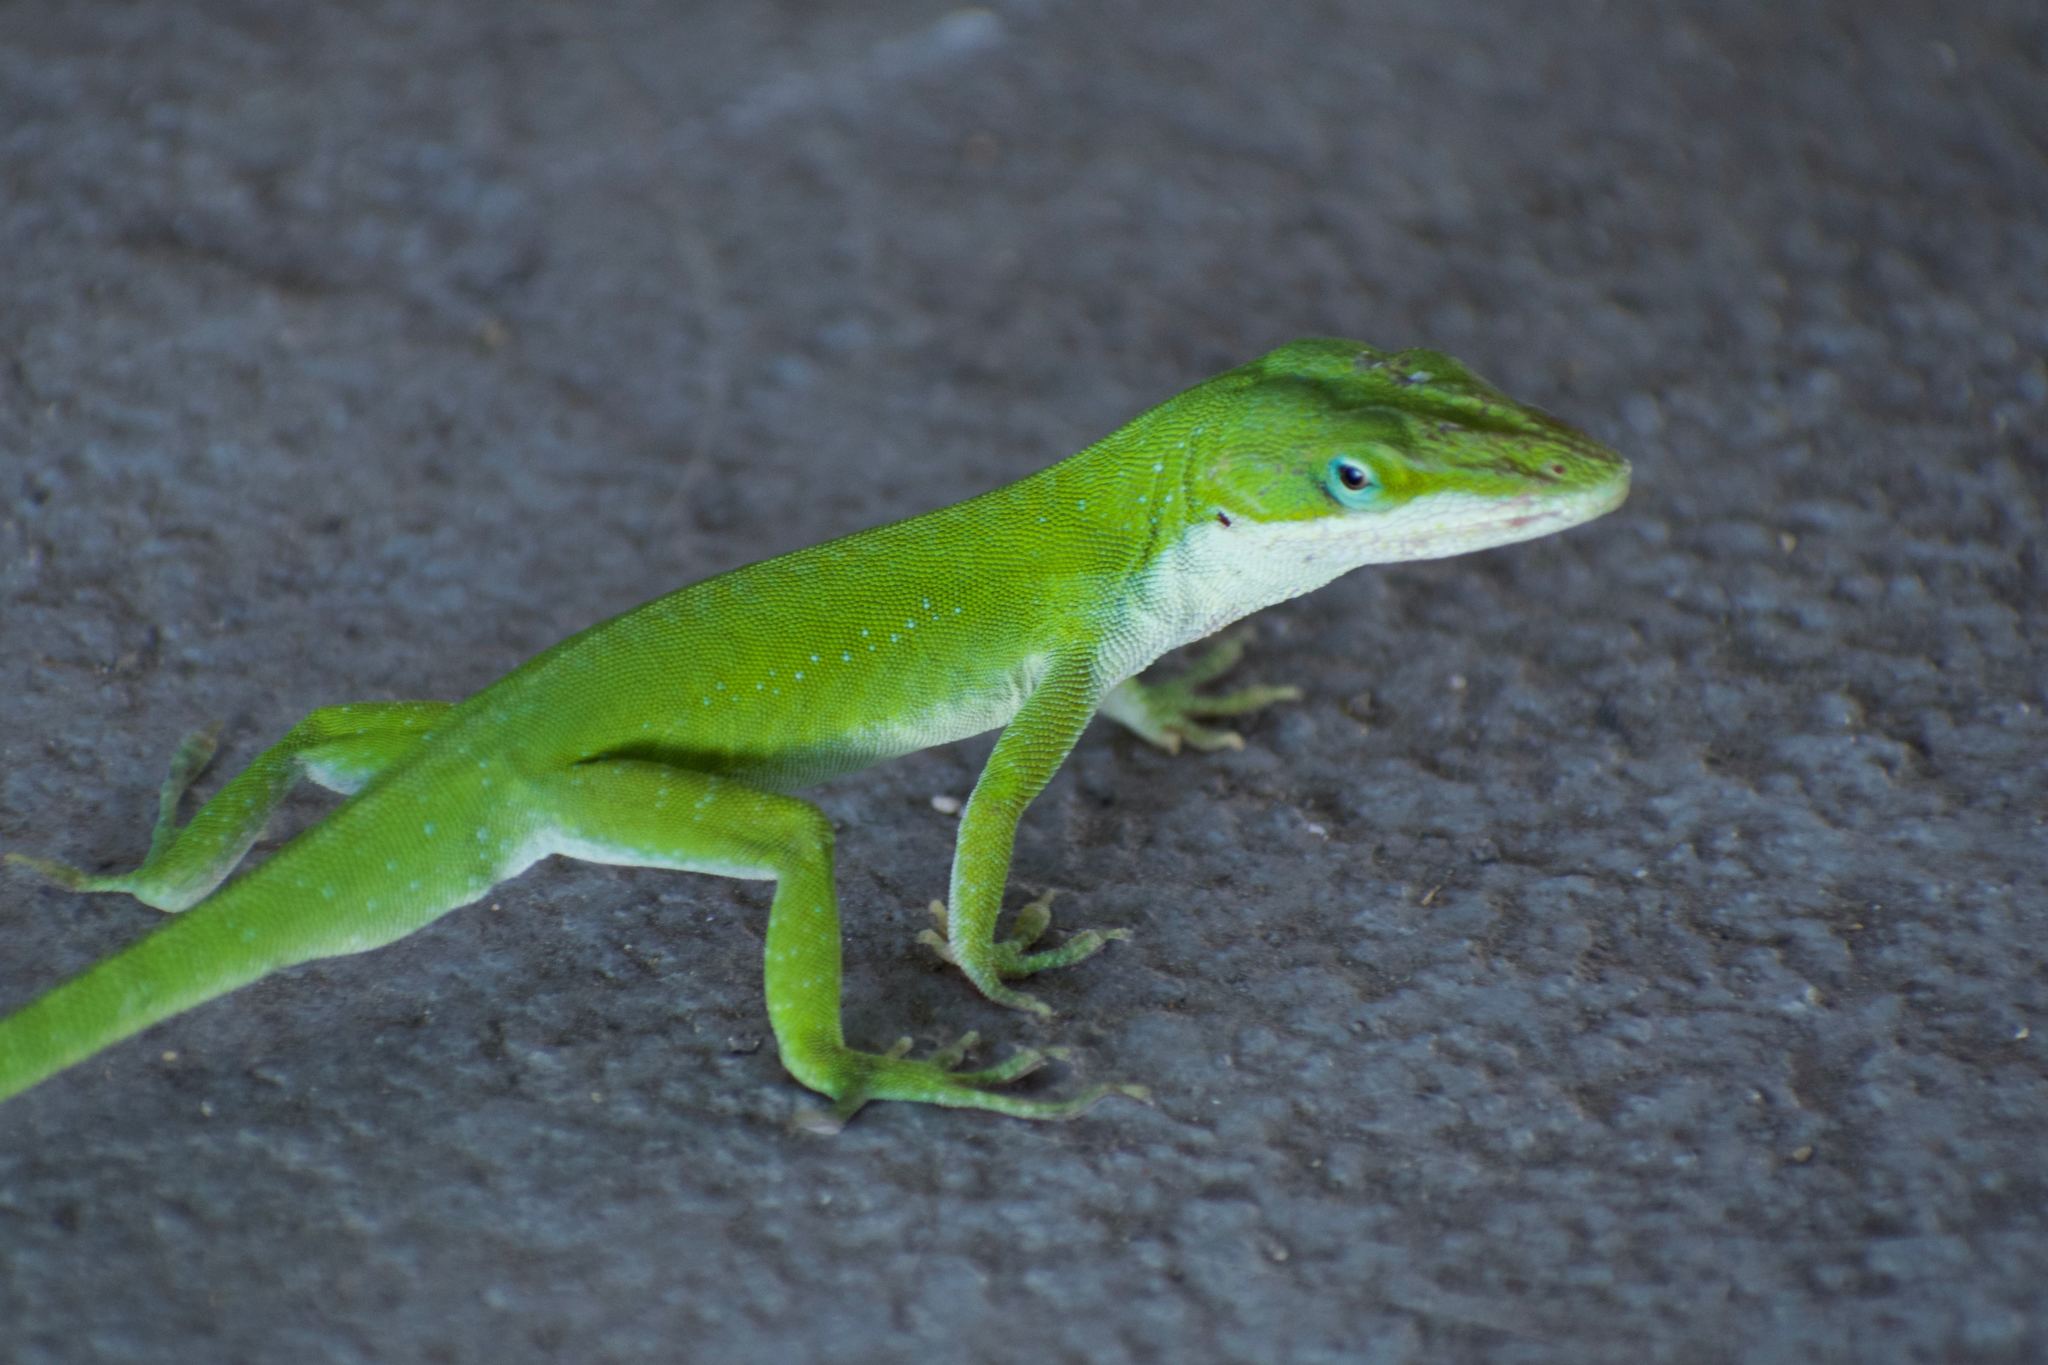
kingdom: Animalia
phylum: Chordata
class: Squamata
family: Dactyloidae
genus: Anolis
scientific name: Anolis carolinensis
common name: Green anole
